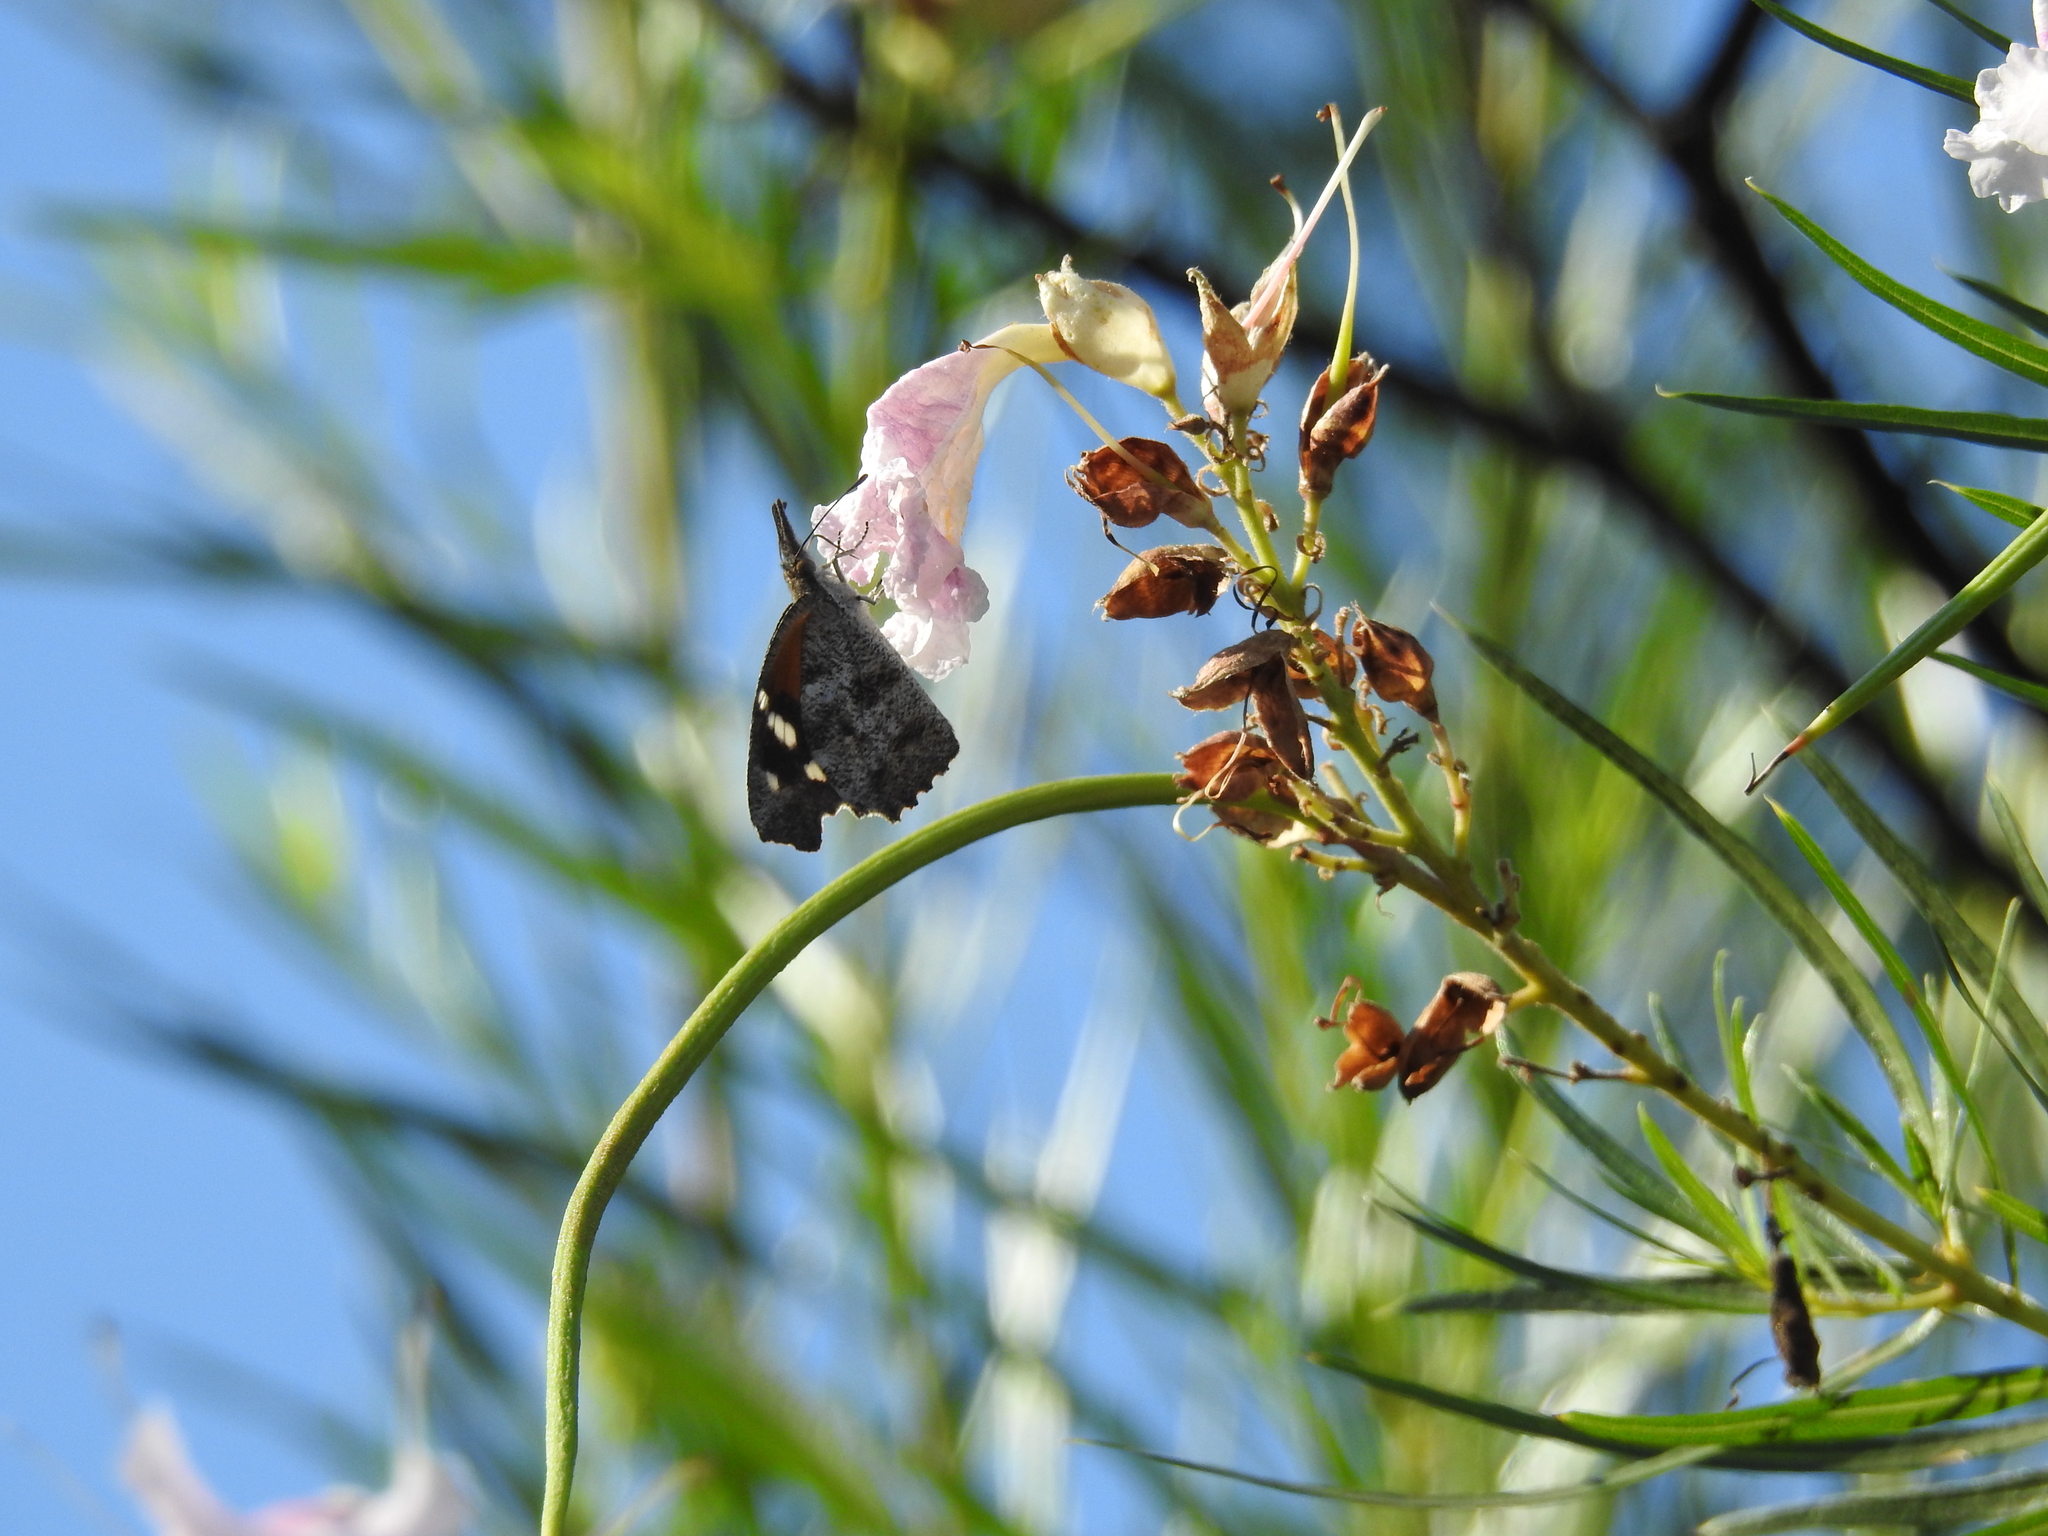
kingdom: Animalia
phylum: Arthropoda
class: Insecta
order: Lepidoptera
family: Nymphalidae
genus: Libytheana
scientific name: Libytheana carinenta
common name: American snout
